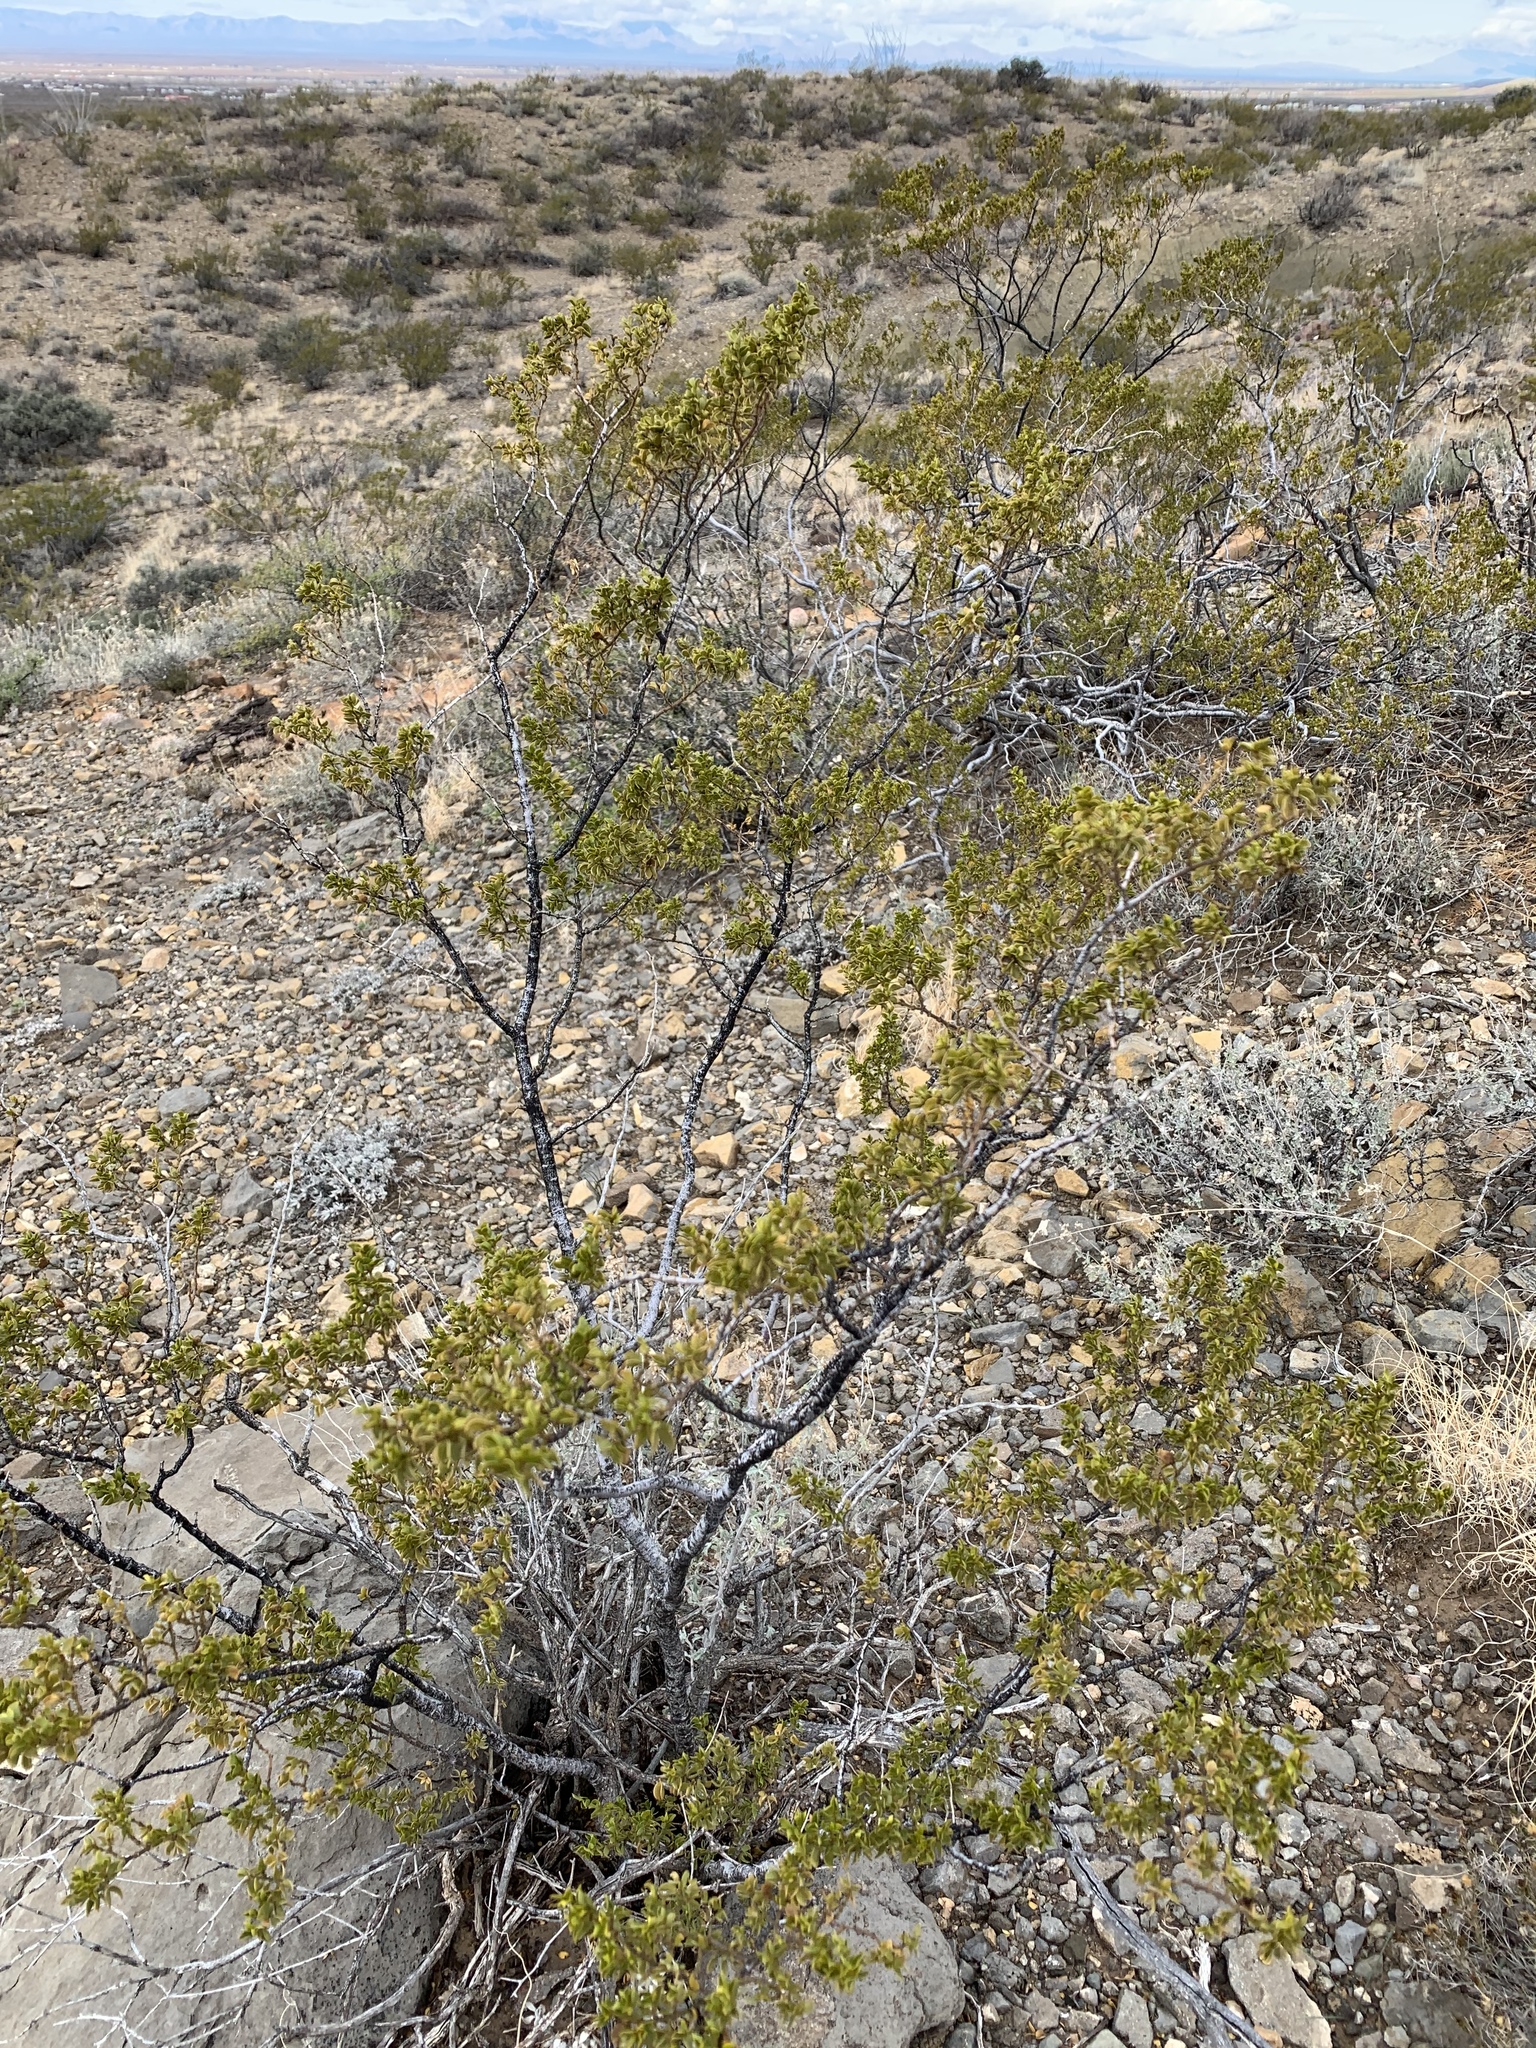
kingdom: Plantae
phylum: Tracheophyta
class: Magnoliopsida
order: Zygophyllales
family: Zygophyllaceae
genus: Larrea
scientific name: Larrea tridentata
